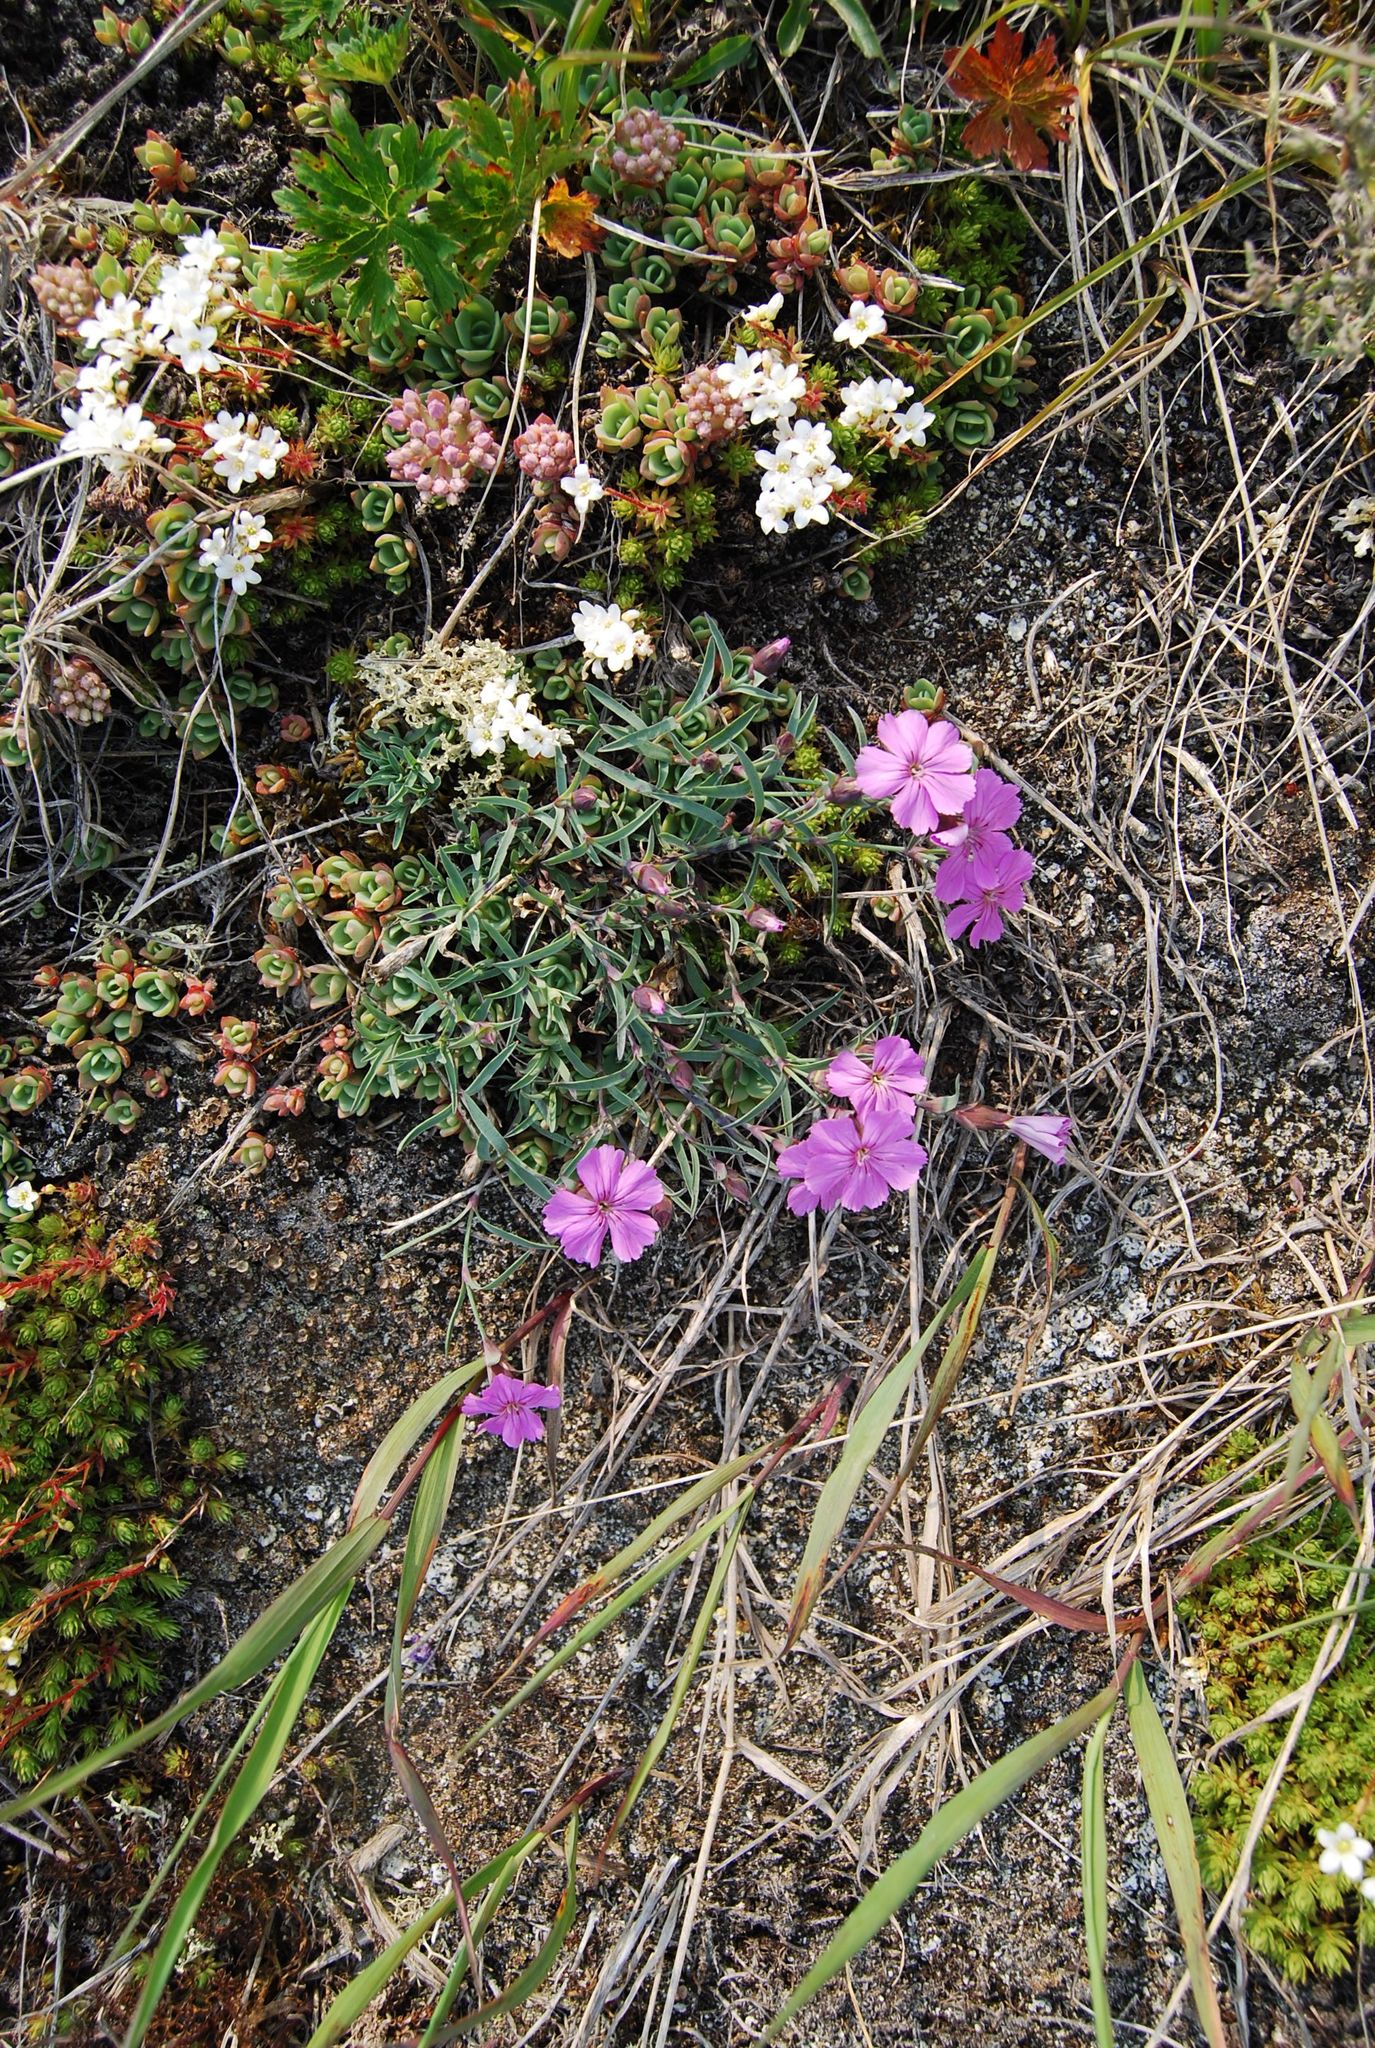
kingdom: Plantae
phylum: Tracheophyta
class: Magnoliopsida
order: Caryophyllales
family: Caryophyllaceae
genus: Dianthus
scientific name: Dianthus repens
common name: Northern pink
